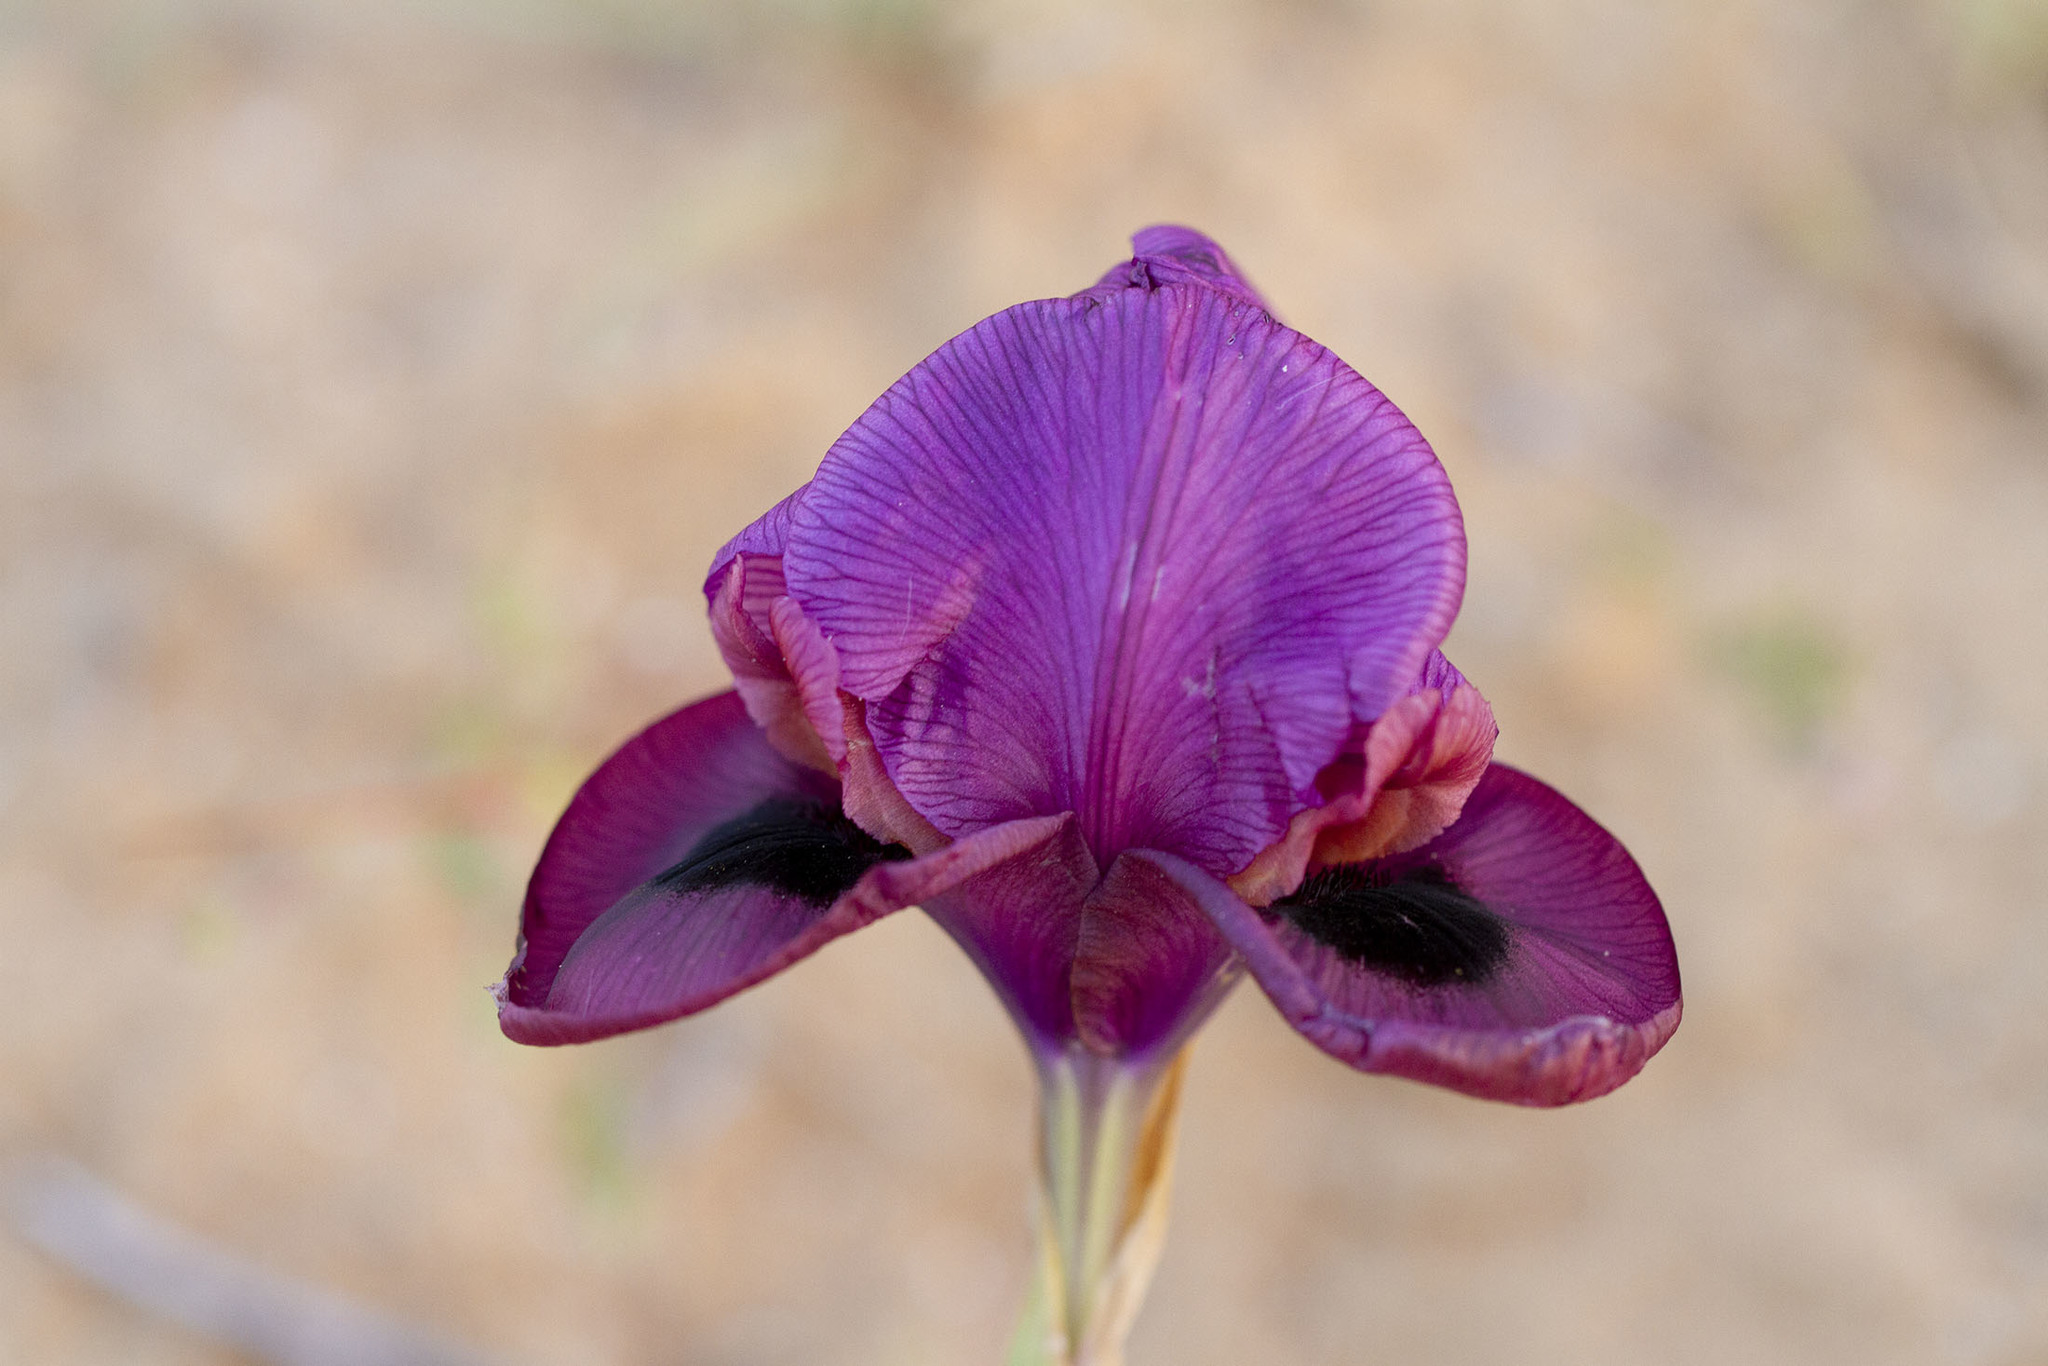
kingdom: Plantae
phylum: Tracheophyta
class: Liliopsida
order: Asparagales
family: Iridaceae
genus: Iris
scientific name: Iris mariae
